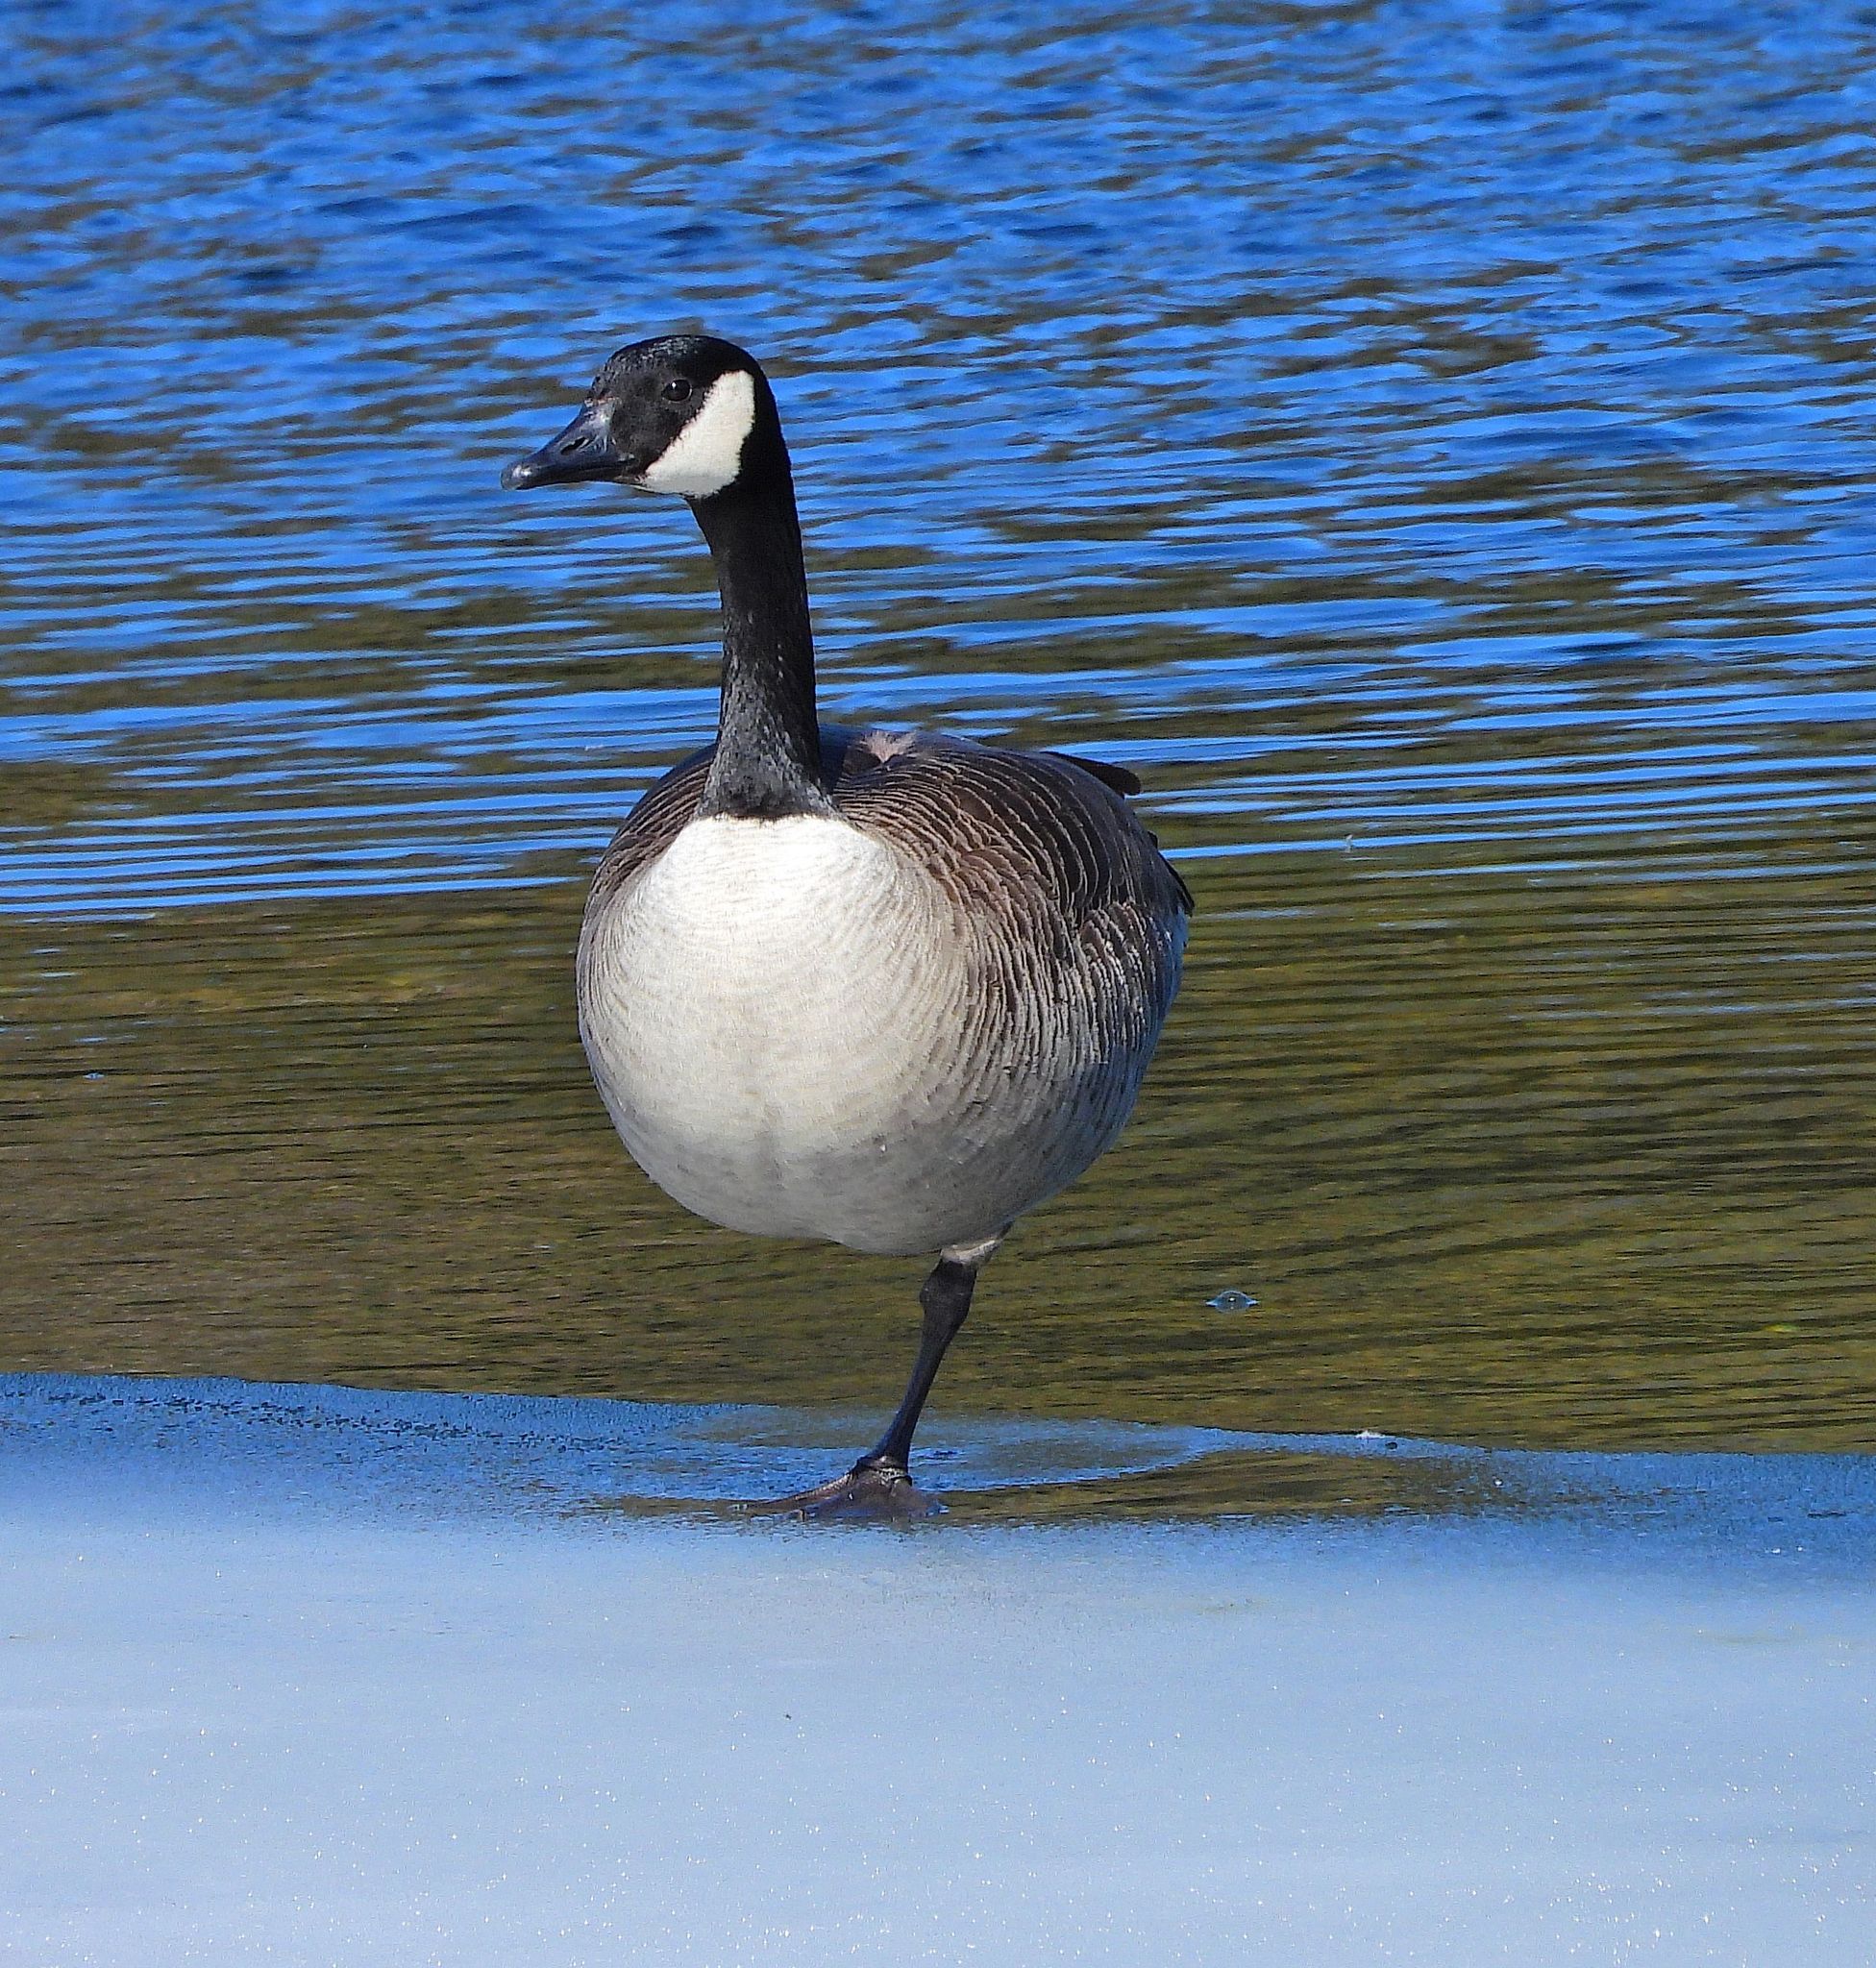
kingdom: Animalia
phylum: Chordata
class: Aves
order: Anseriformes
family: Anatidae
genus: Branta
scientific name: Branta canadensis
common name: Canada goose
